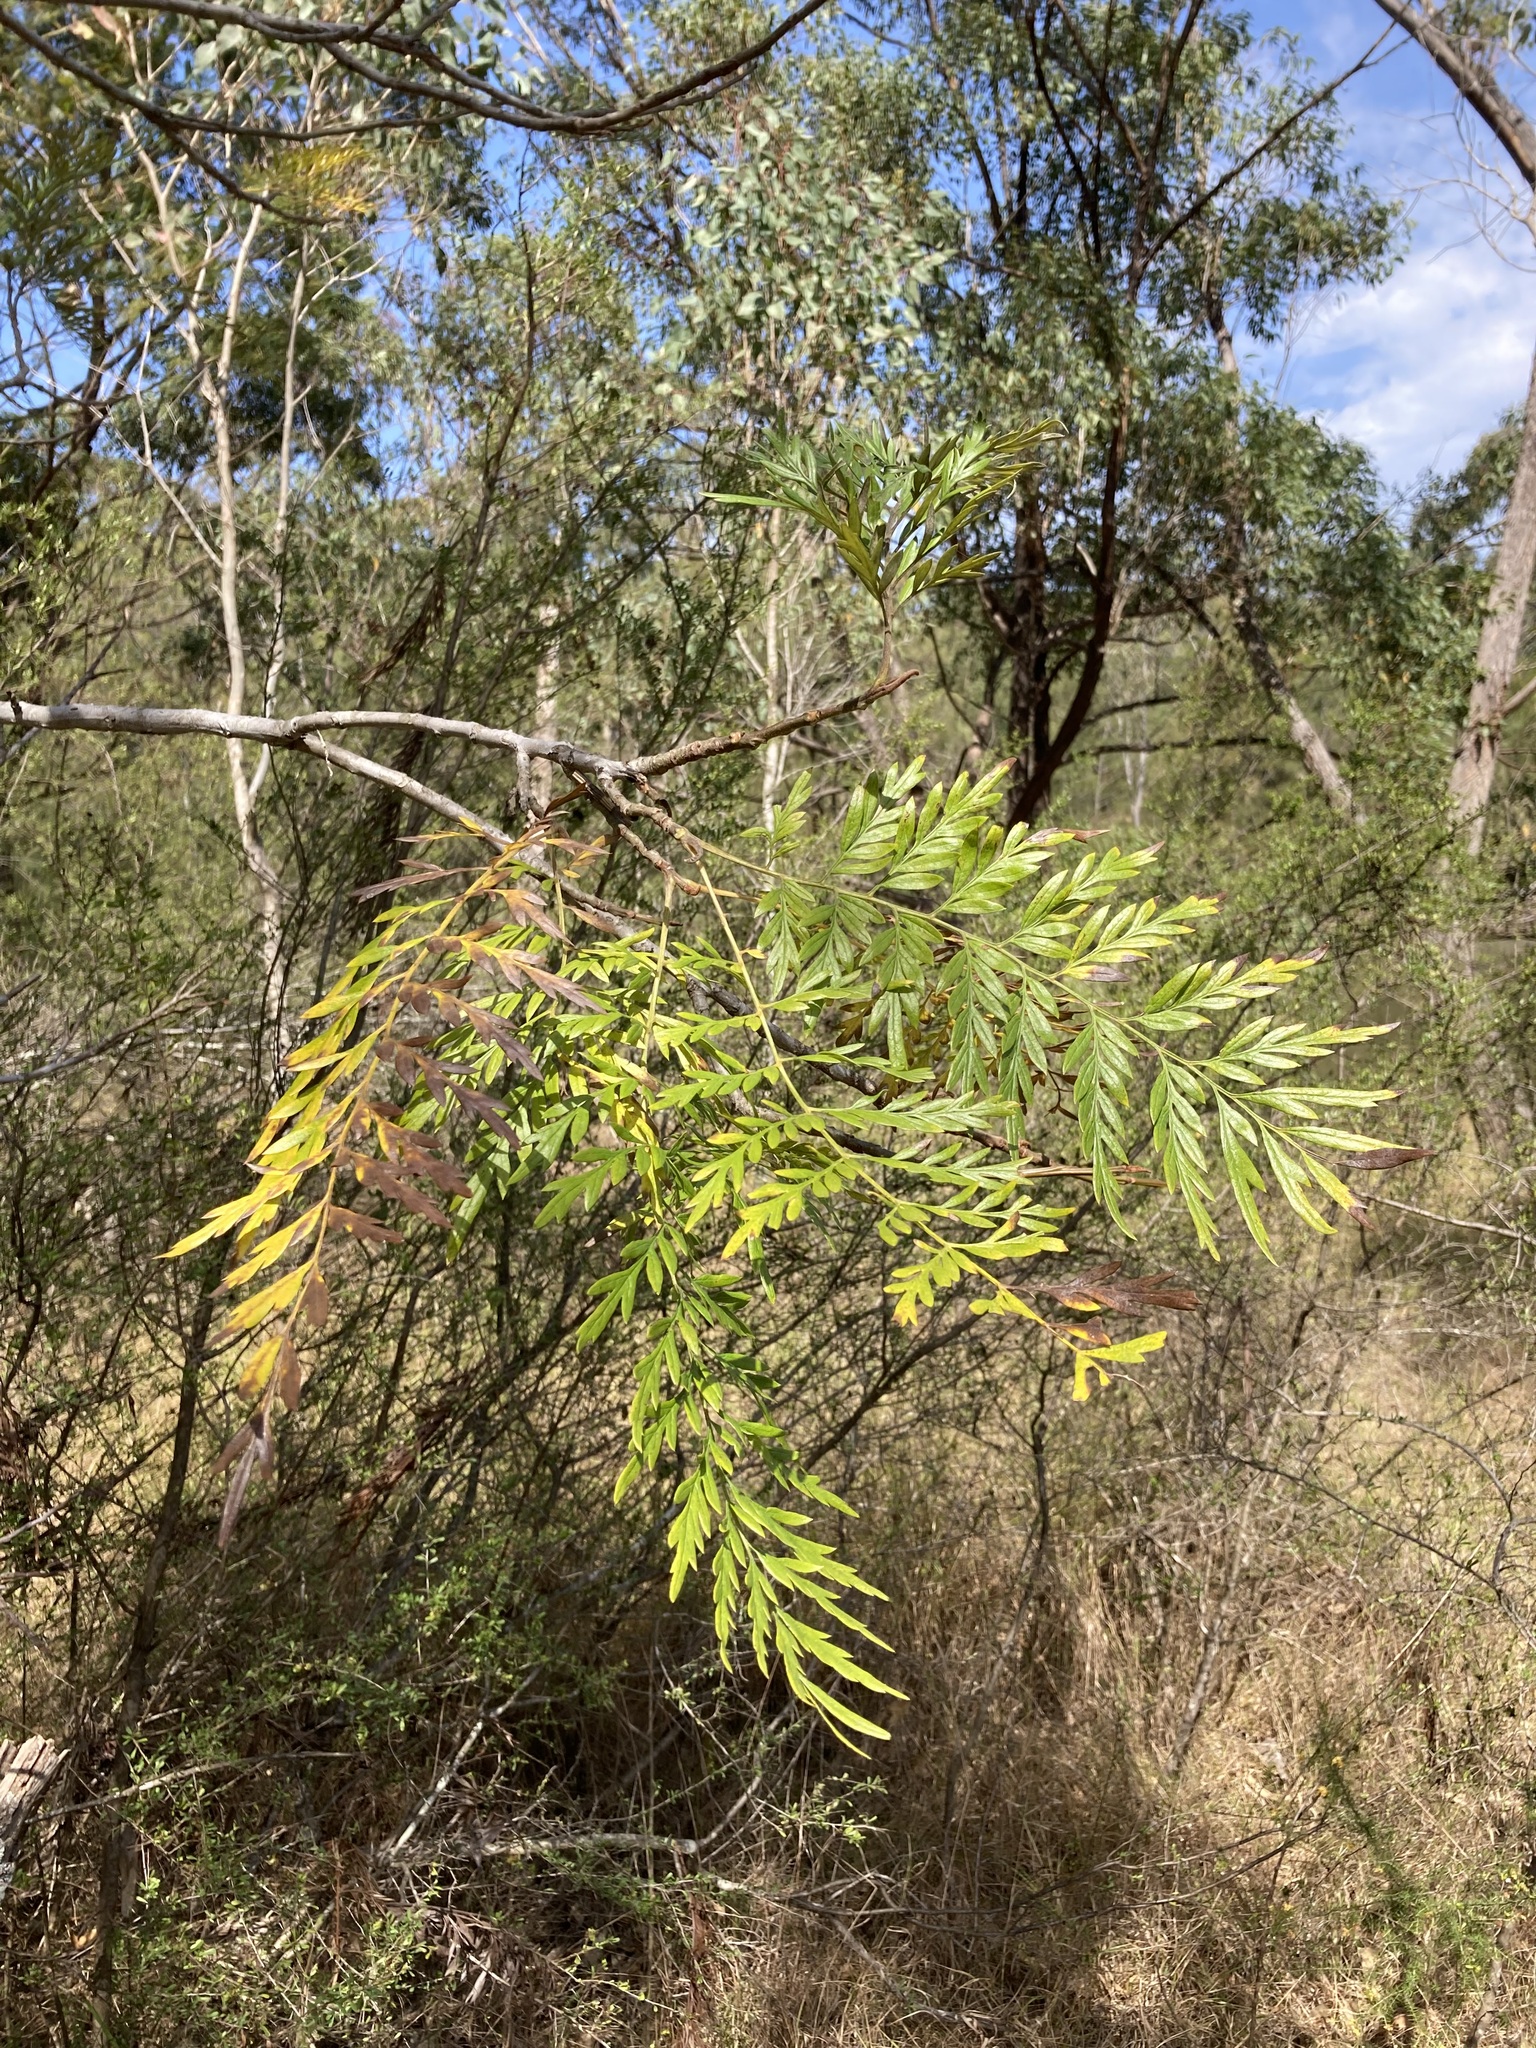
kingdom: Plantae
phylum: Tracheophyta
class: Magnoliopsida
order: Proteales
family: Proteaceae
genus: Grevillea
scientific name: Grevillea robusta
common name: Silkoak
